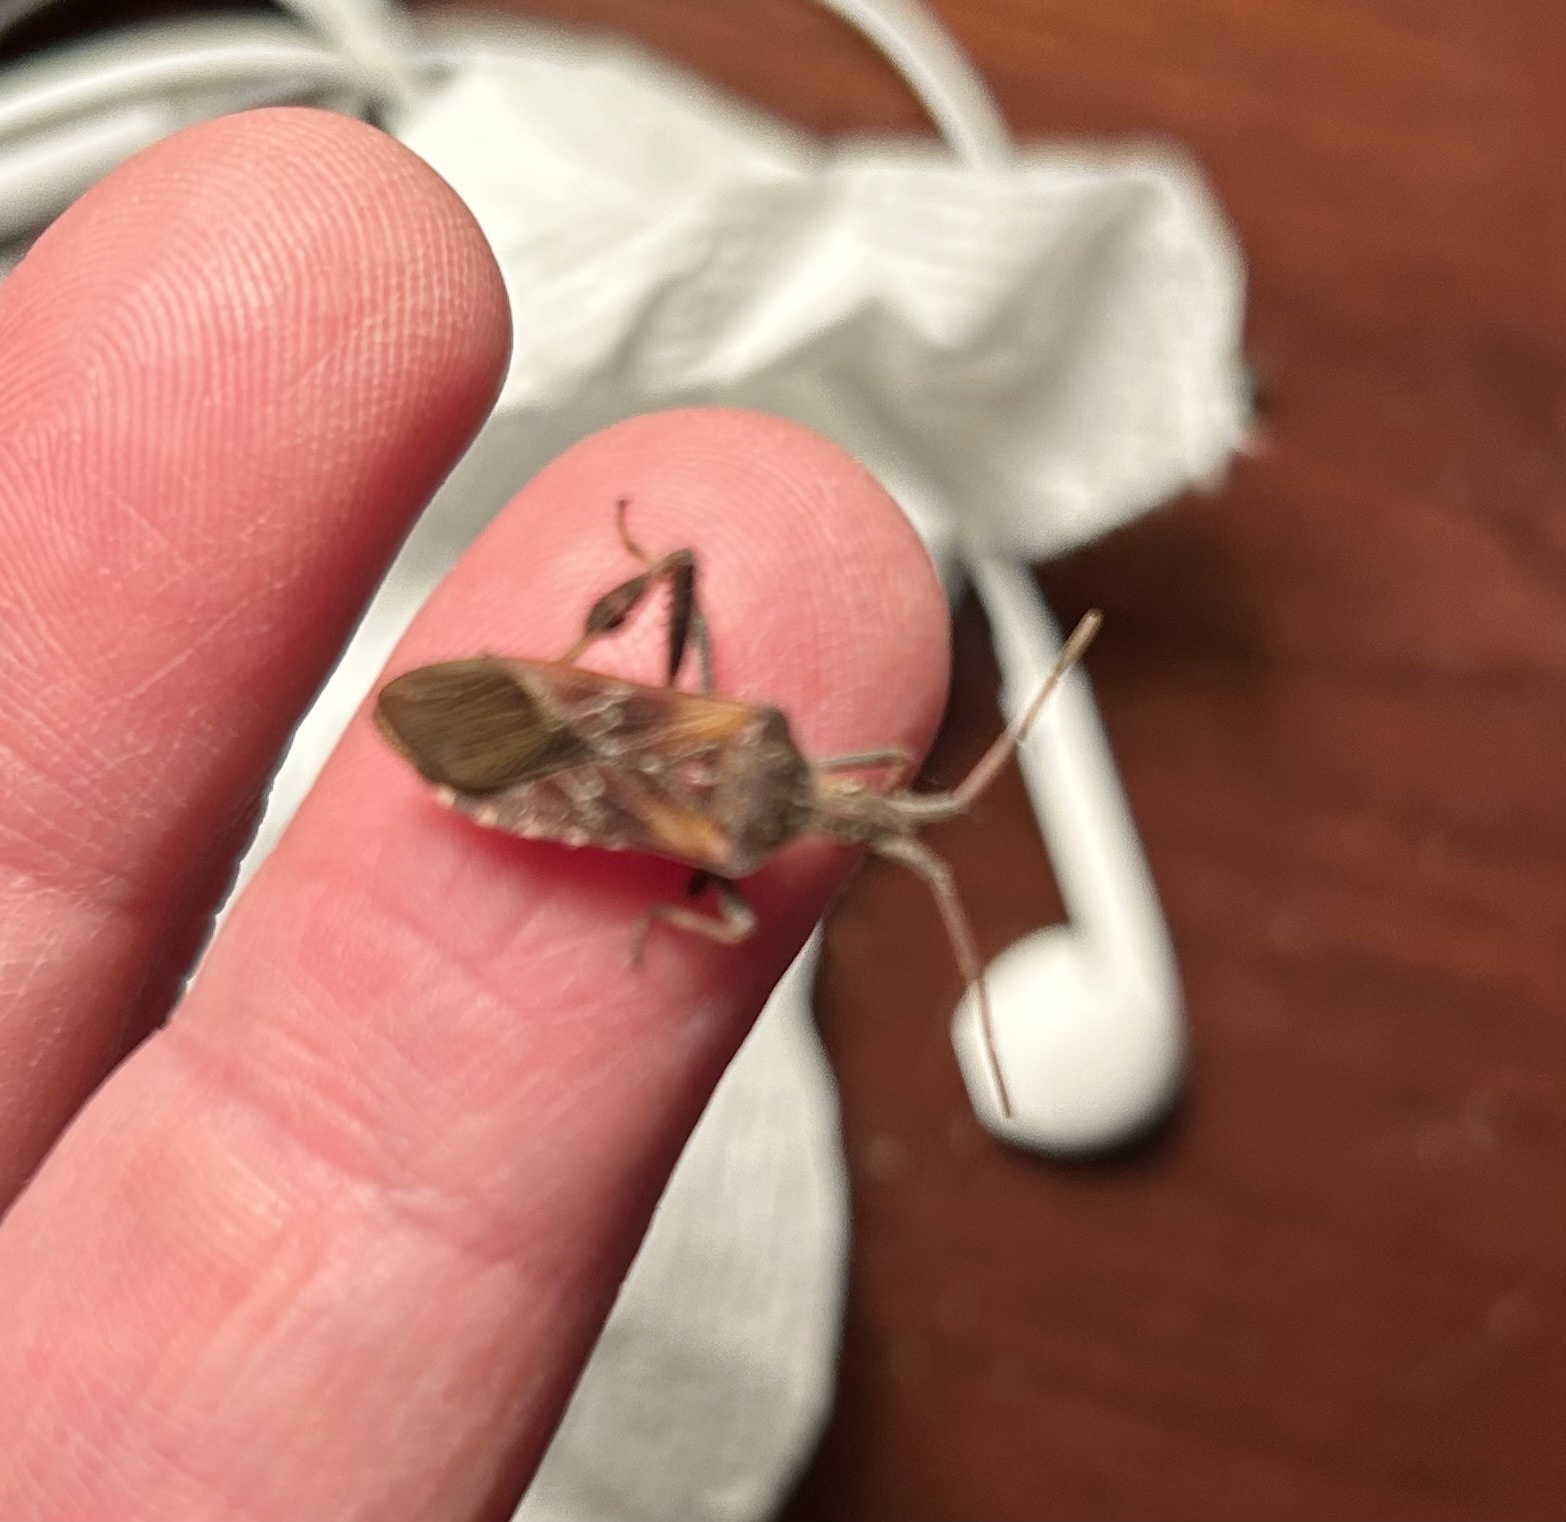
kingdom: Animalia
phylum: Arthropoda
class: Insecta
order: Hemiptera
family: Coreidae
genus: Leptoglossus
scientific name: Leptoglossus occidentalis
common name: Western conifer-seed bug
